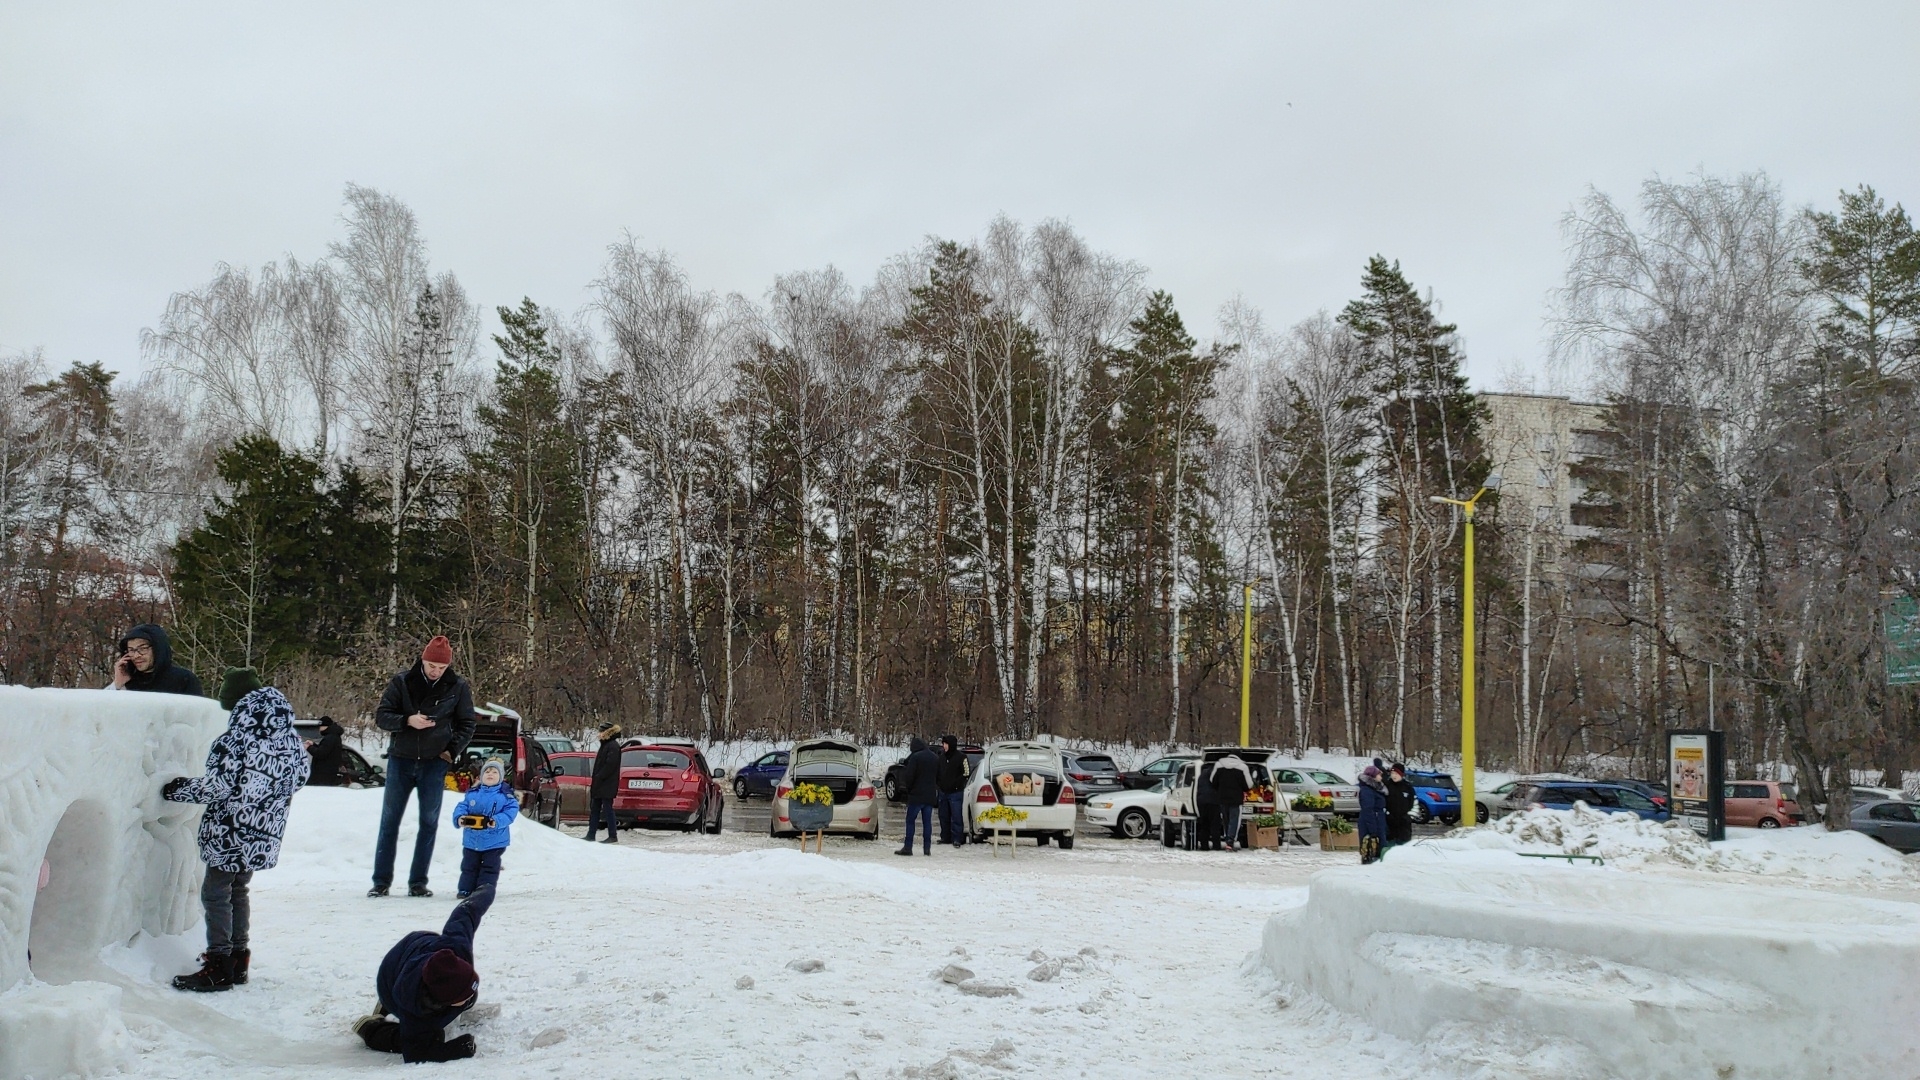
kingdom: Plantae
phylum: Tracheophyta
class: Magnoliopsida
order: Fagales
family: Betulaceae
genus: Betula
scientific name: Betula pendula
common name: Silver birch
